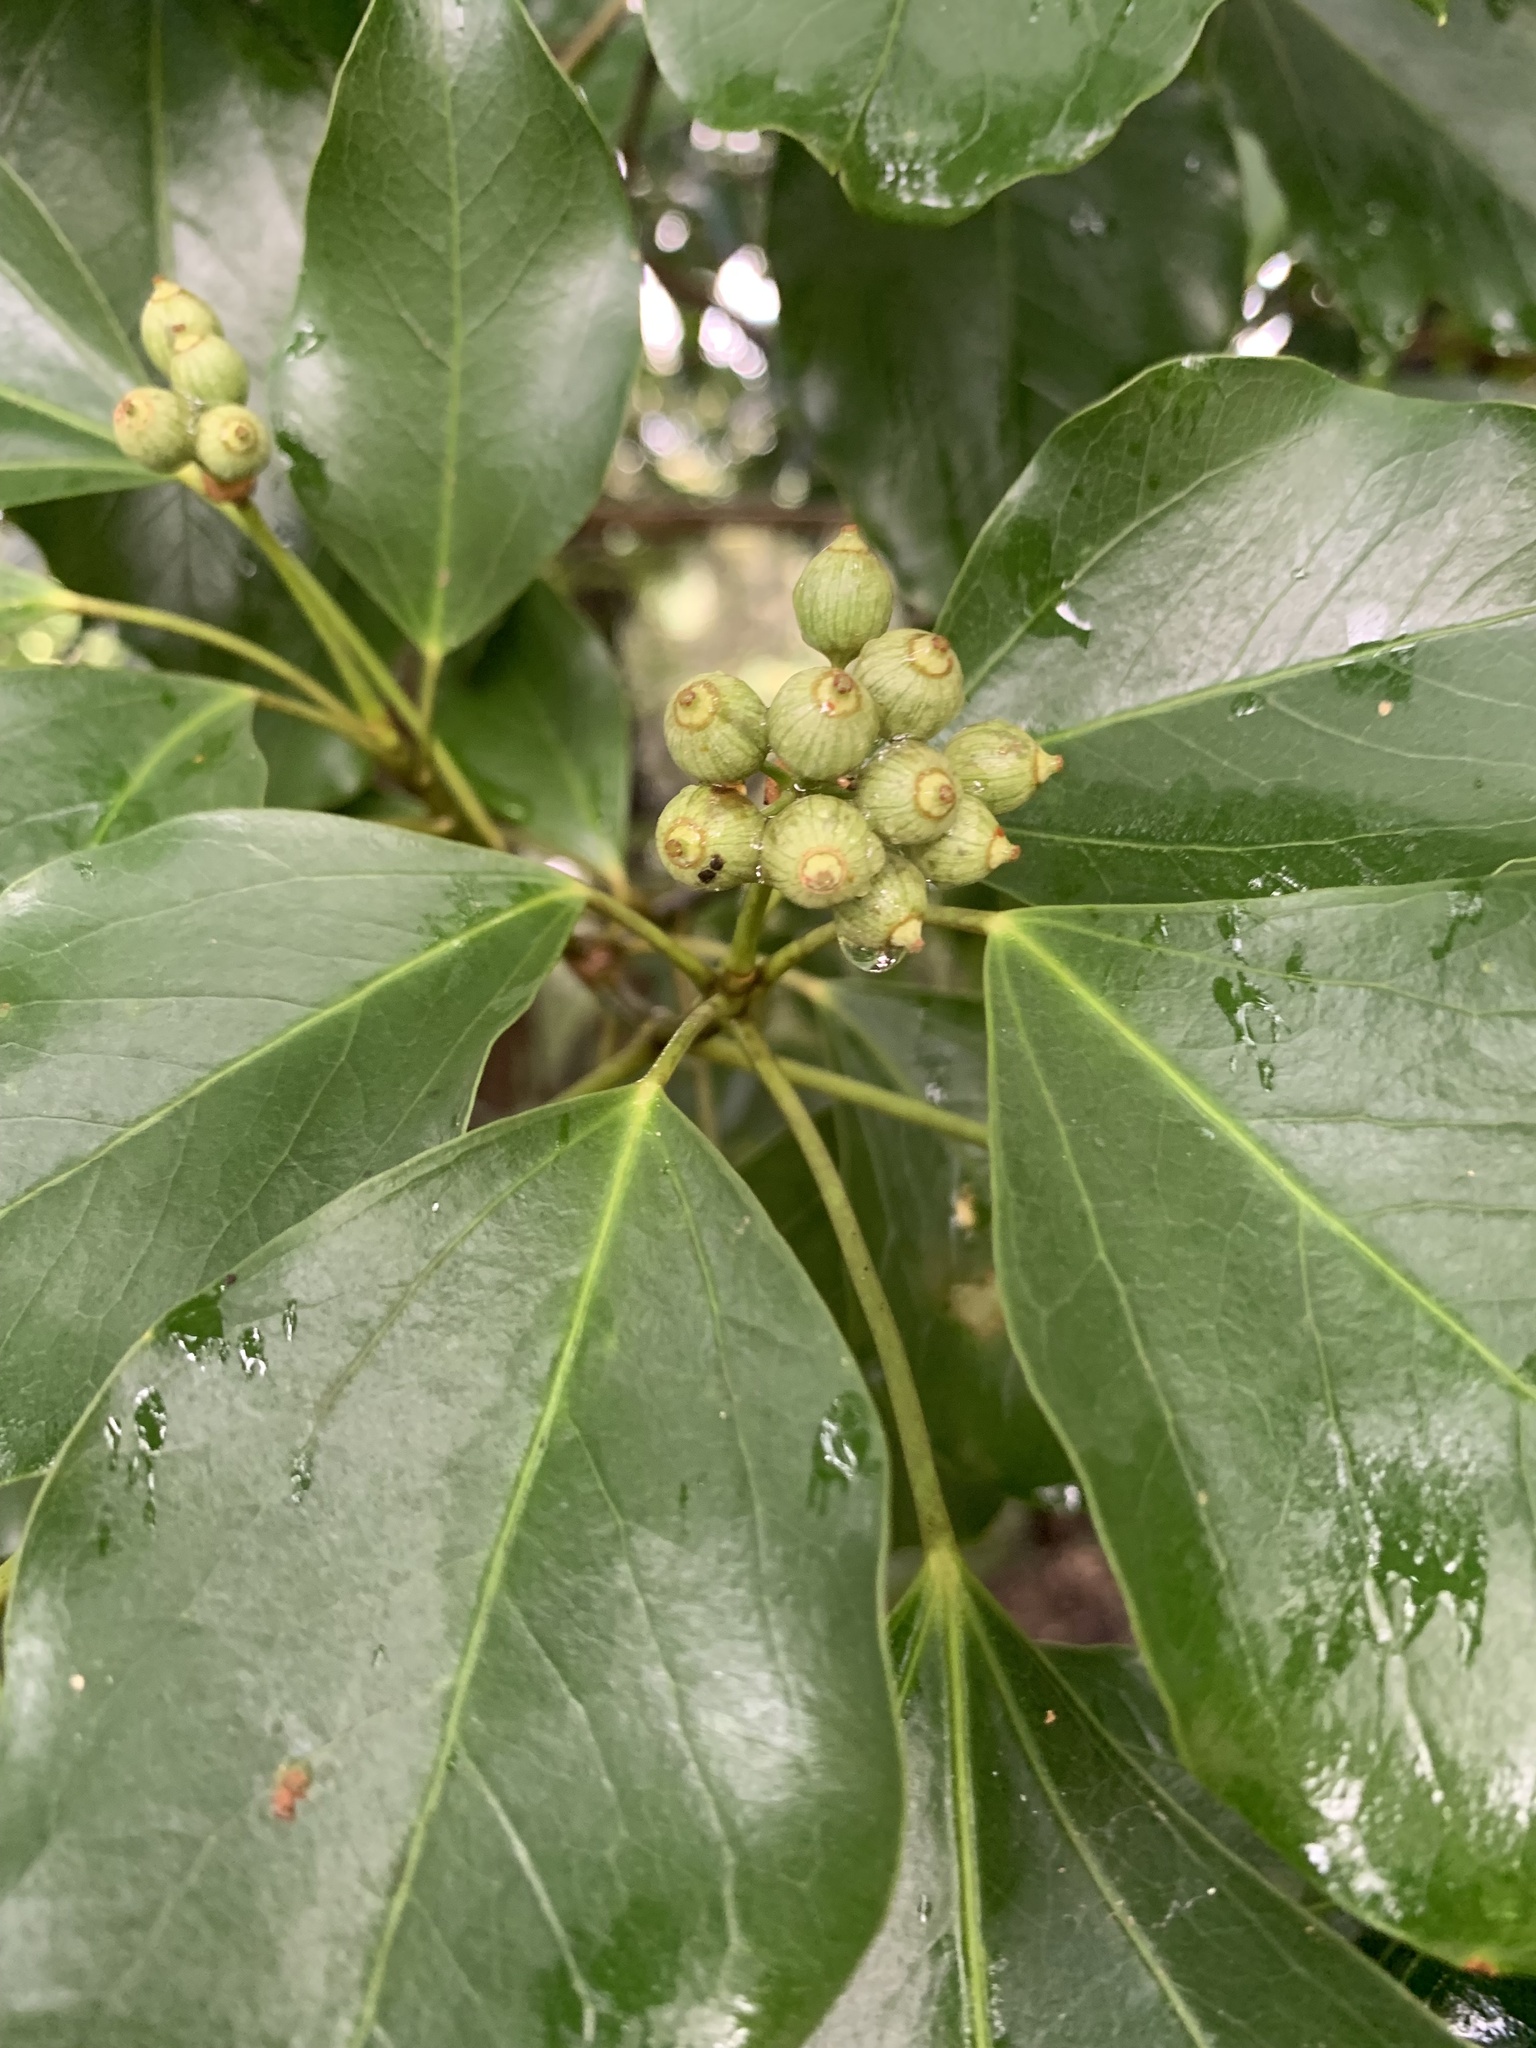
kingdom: Plantae
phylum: Tracheophyta
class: Magnoliopsida
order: Apiales
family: Araliaceae
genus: Dendropanax
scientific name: Dendropanax trifidus
